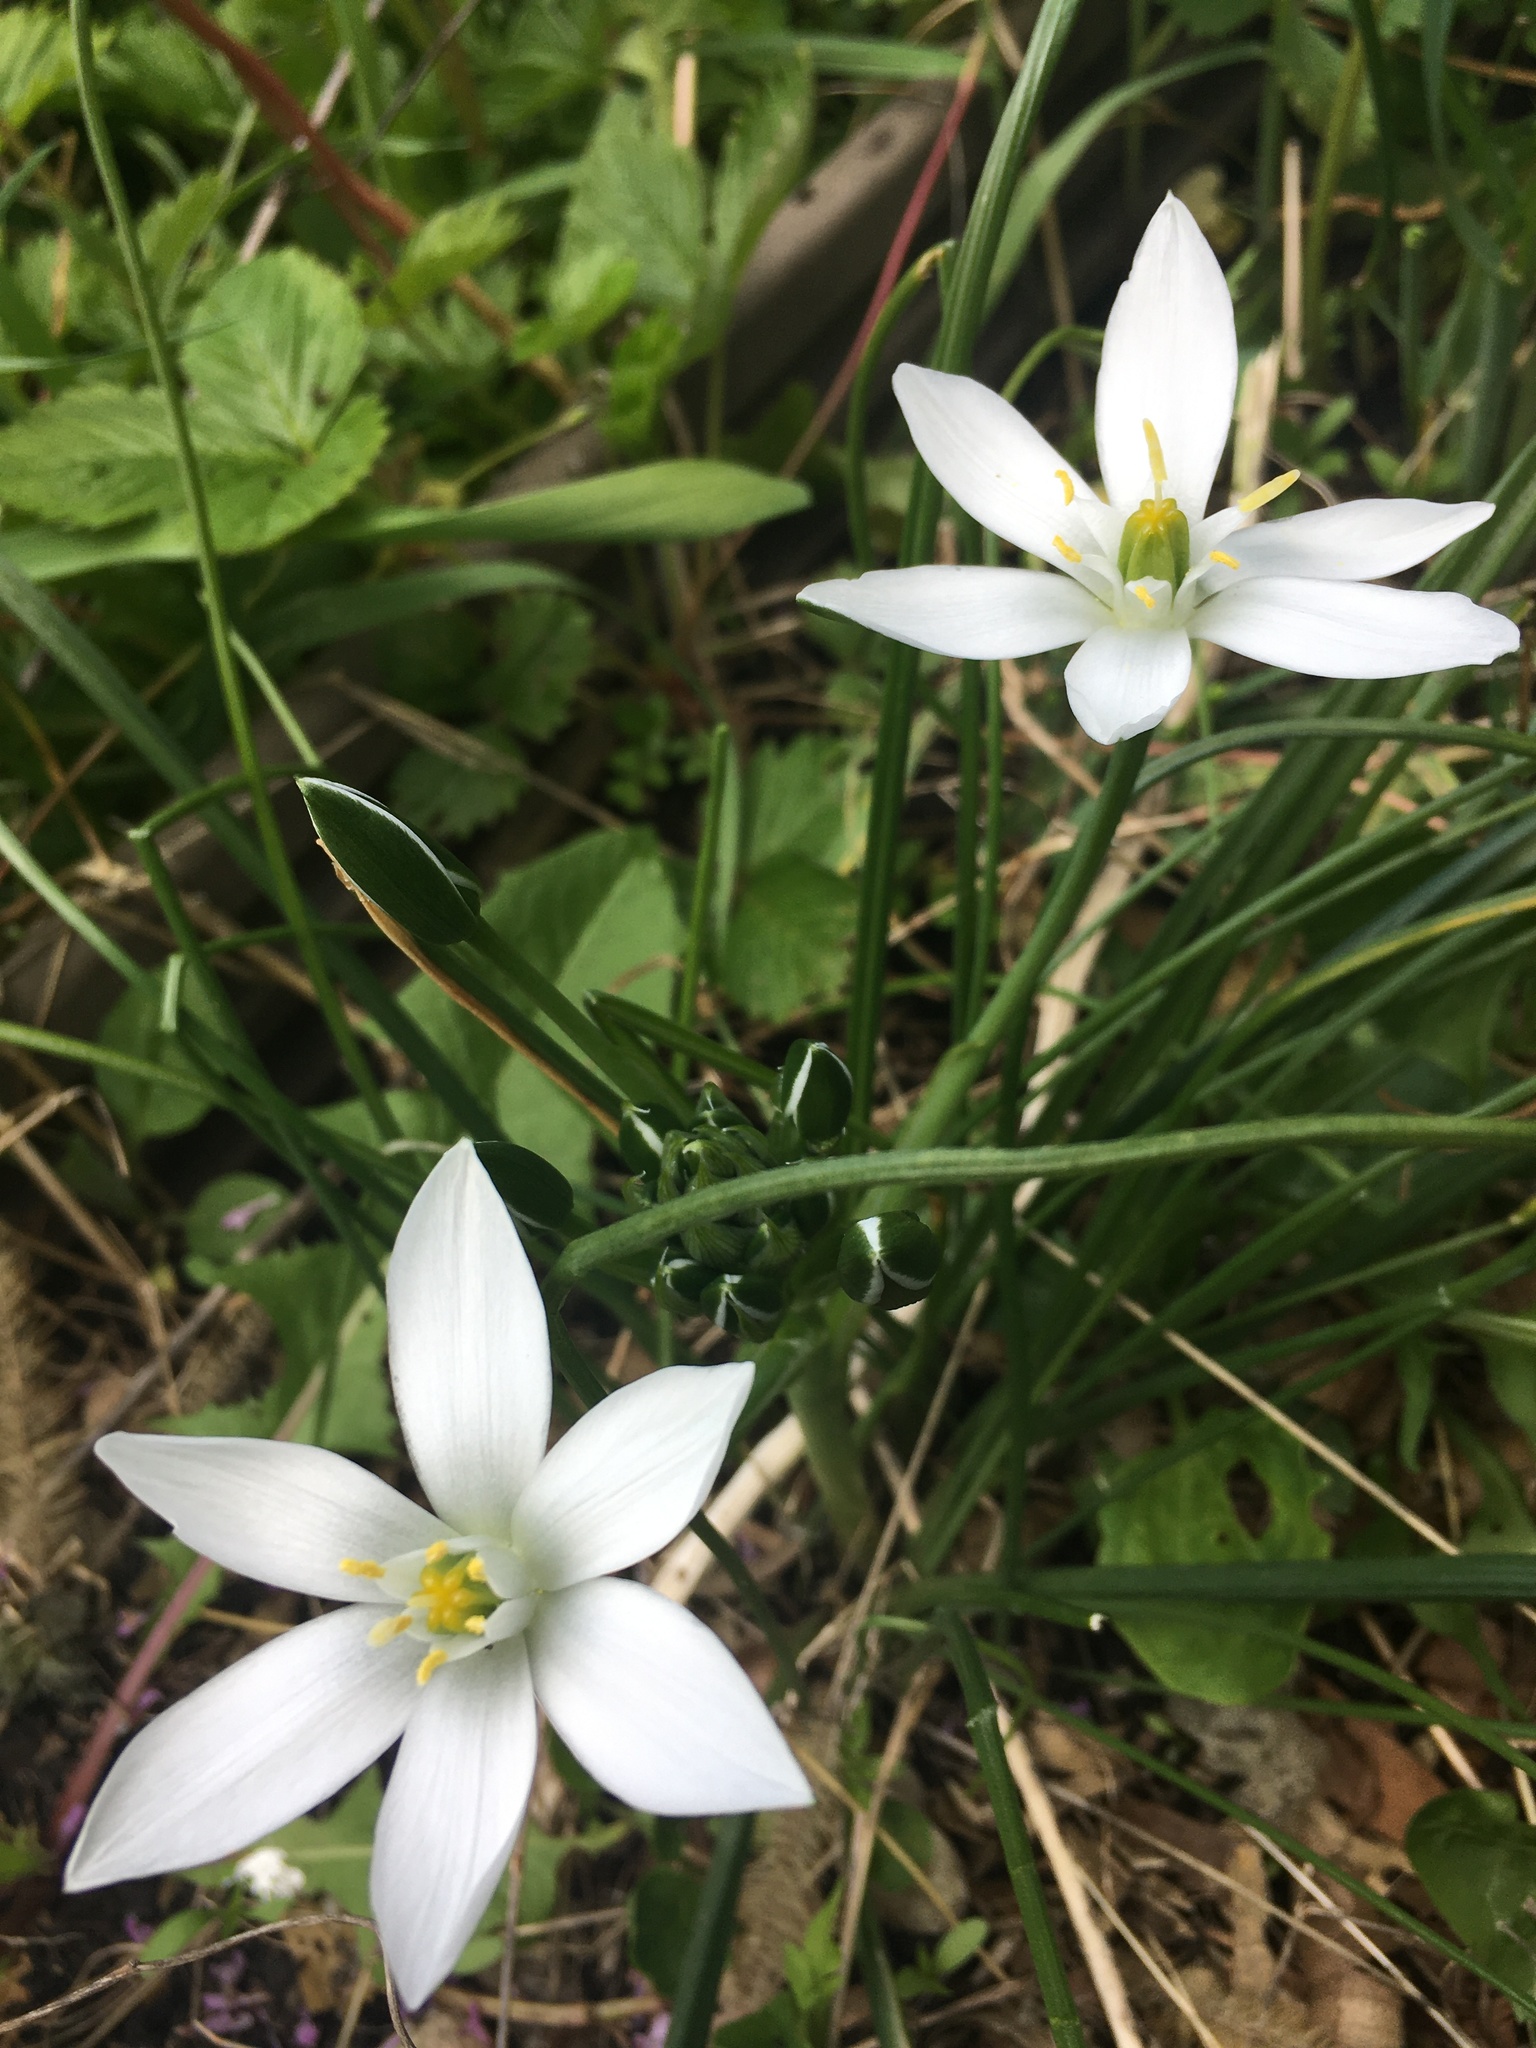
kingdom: Plantae
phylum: Tracheophyta
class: Liliopsida
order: Asparagales
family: Asparagaceae
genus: Ornithogalum
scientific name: Ornithogalum umbellatum
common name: Garden star-of-bethlehem
